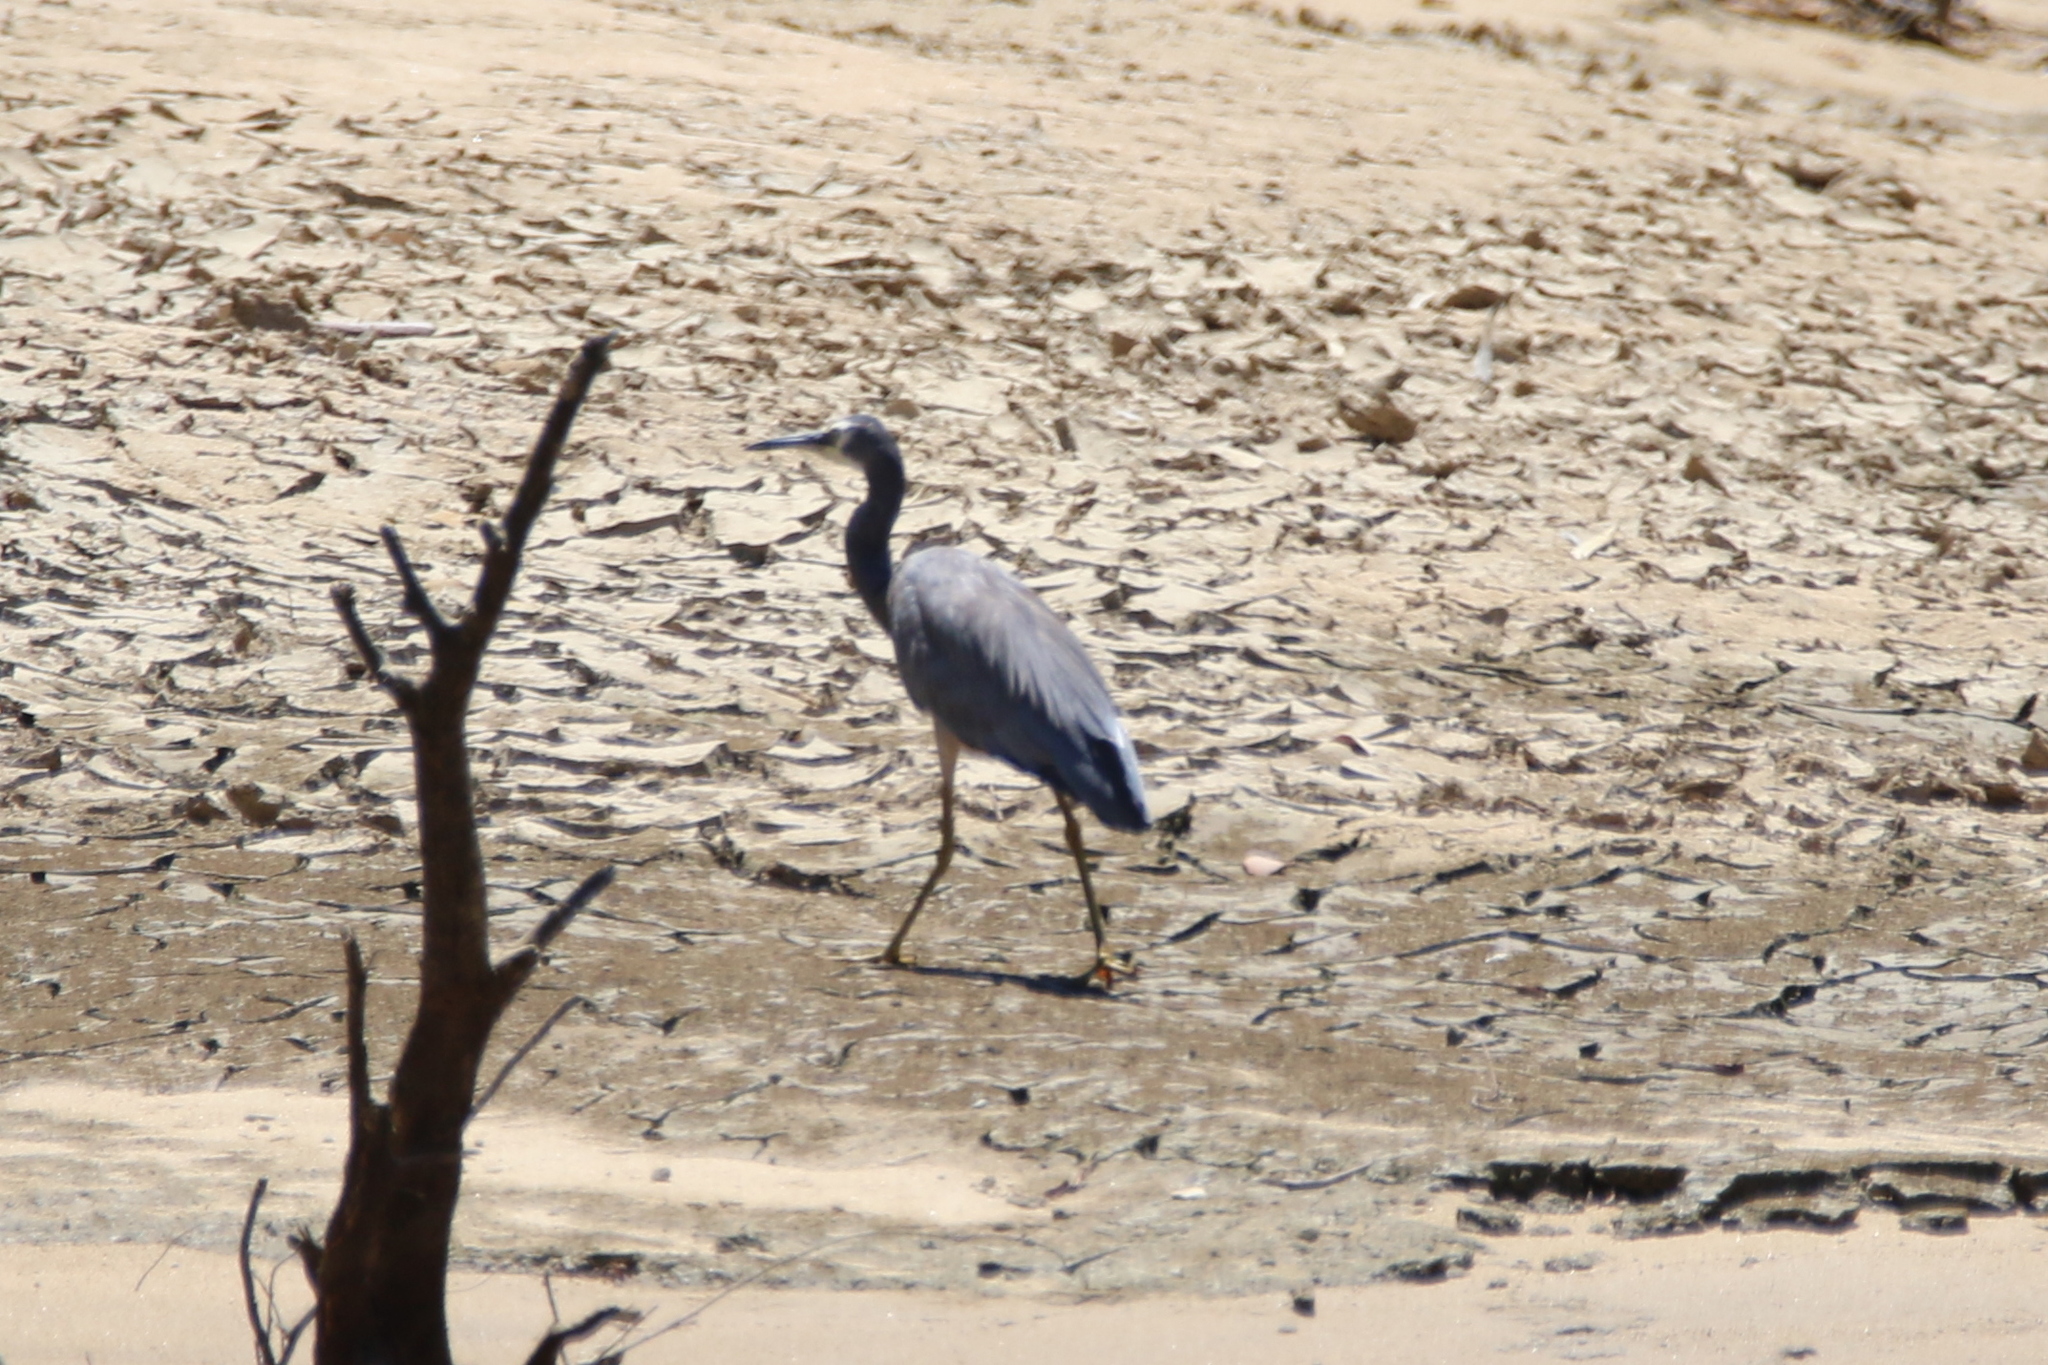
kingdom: Animalia
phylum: Chordata
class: Aves
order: Pelecaniformes
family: Ardeidae
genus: Egretta
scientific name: Egretta novaehollandiae
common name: White-faced heron
